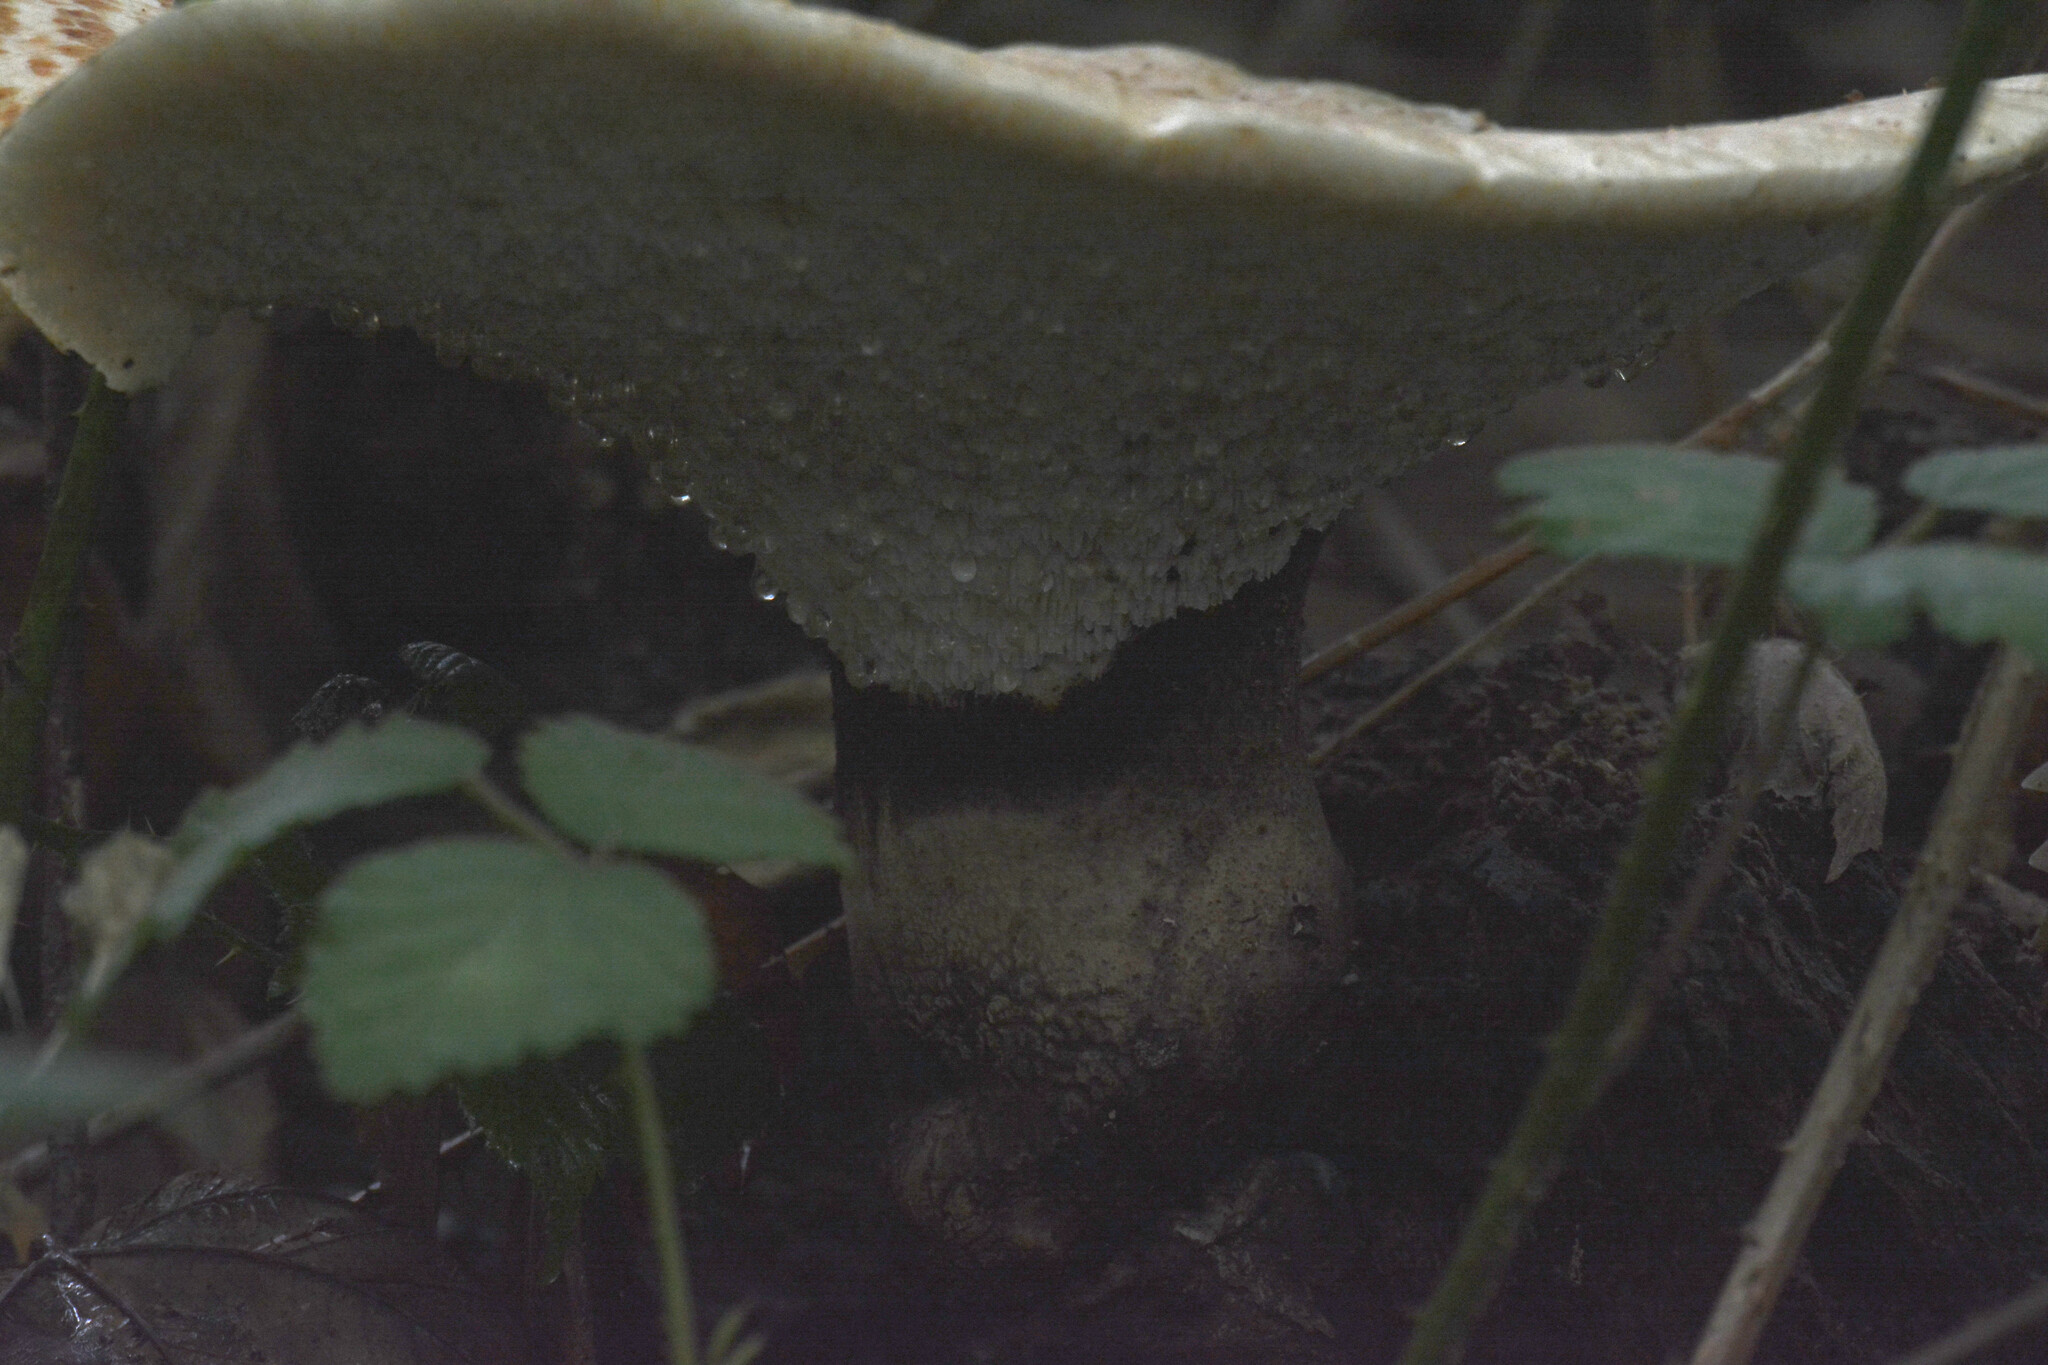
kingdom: Fungi
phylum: Basidiomycota
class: Agaricomycetes
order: Polyporales
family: Polyporaceae
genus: Cerioporus
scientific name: Cerioporus squamosus
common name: Dryad's saddle
